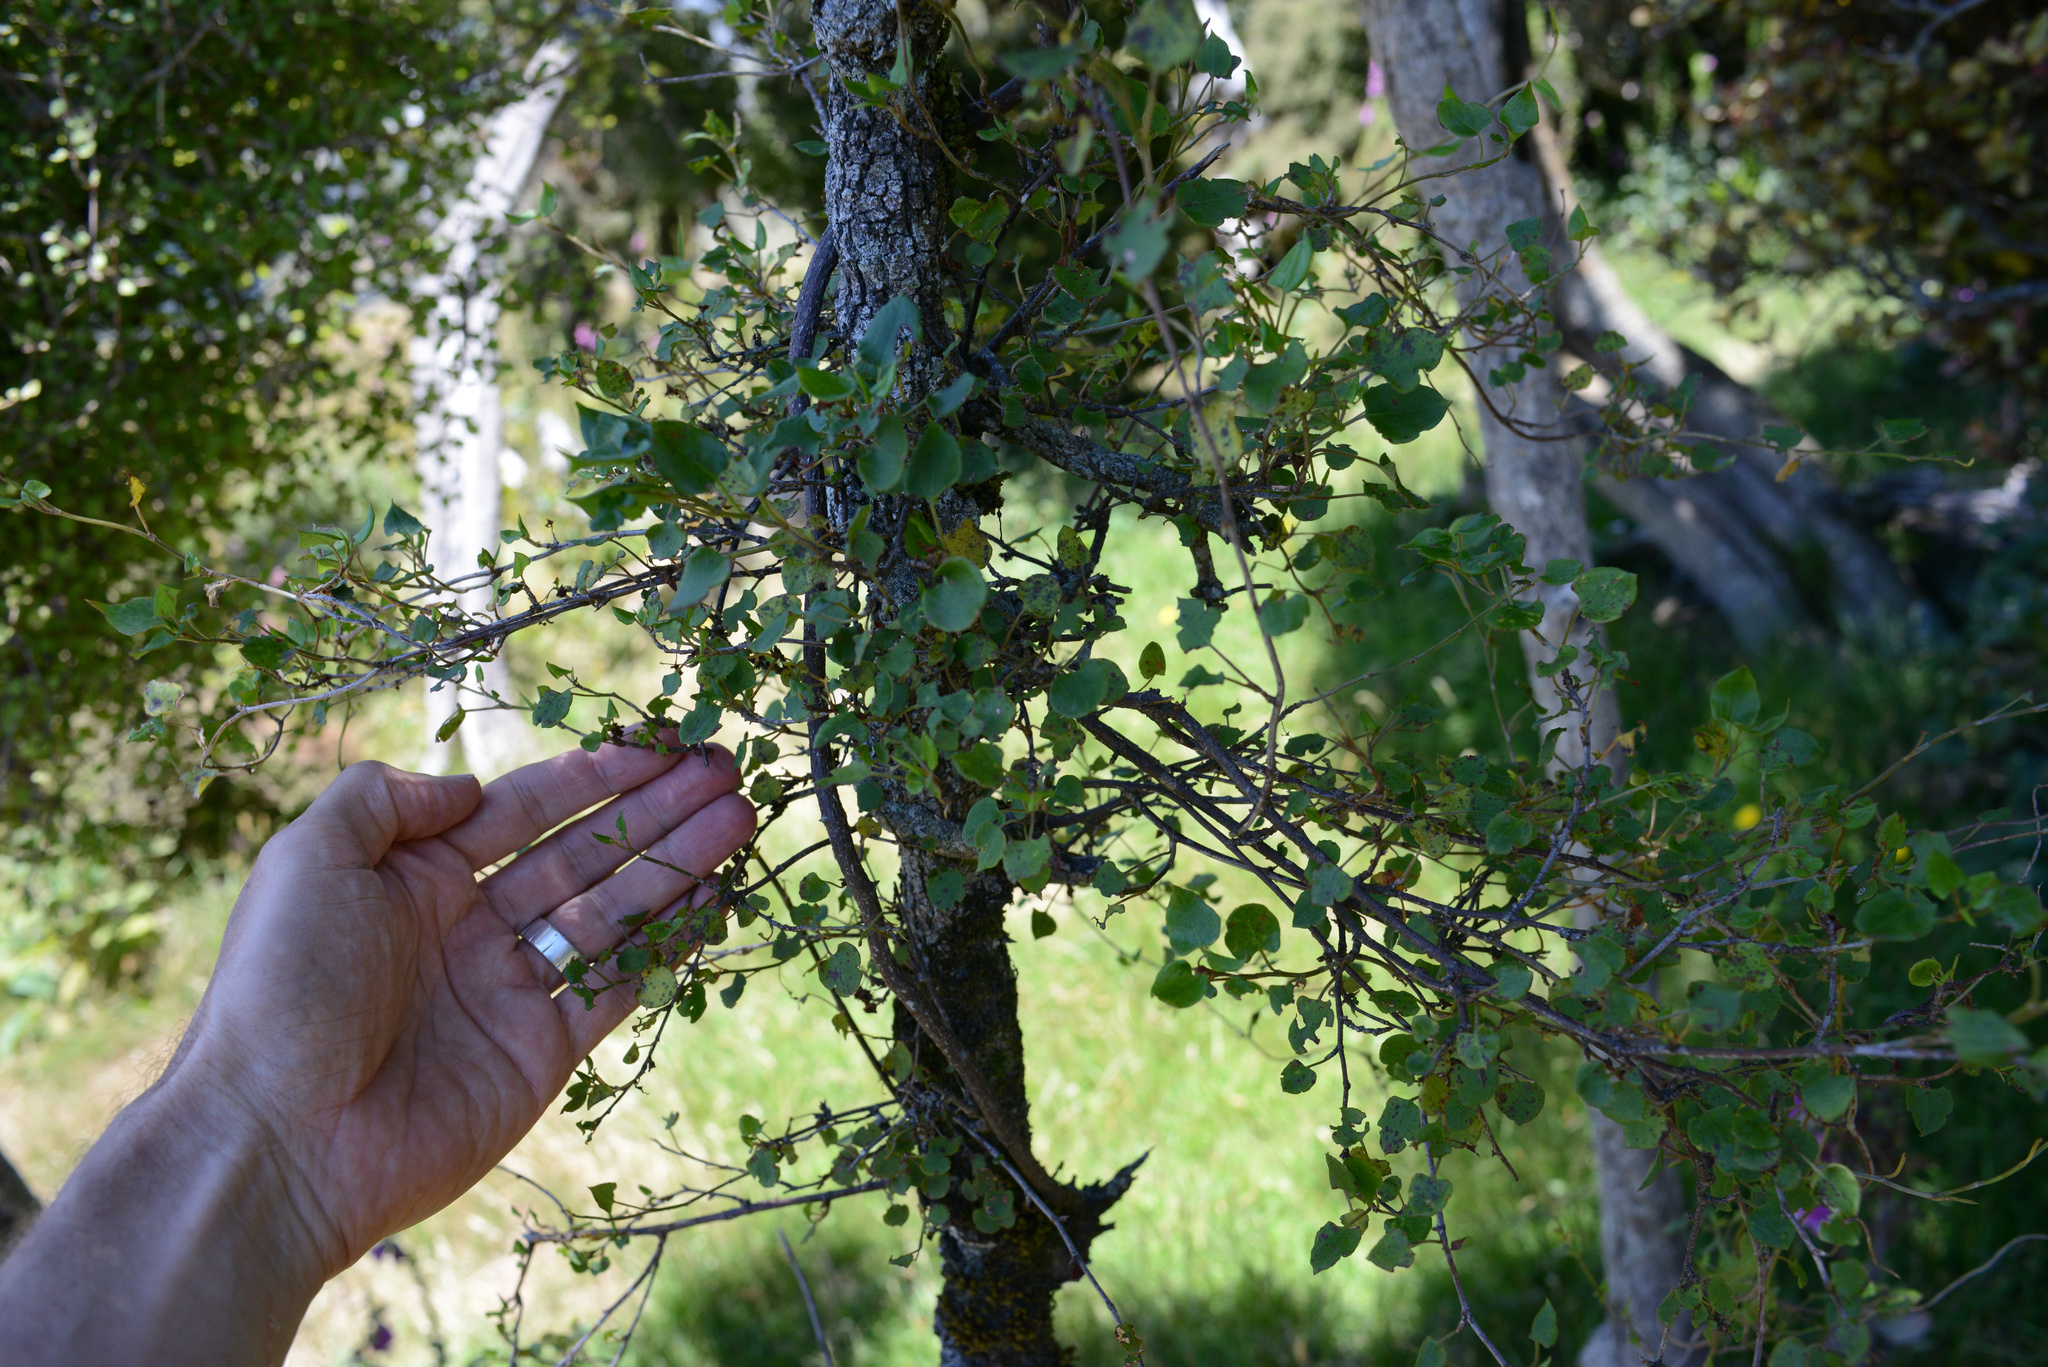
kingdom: Plantae
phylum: Tracheophyta
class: Magnoliopsida
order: Caryophyllales
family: Polygonaceae
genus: Muehlenbeckia
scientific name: Muehlenbeckia australis
